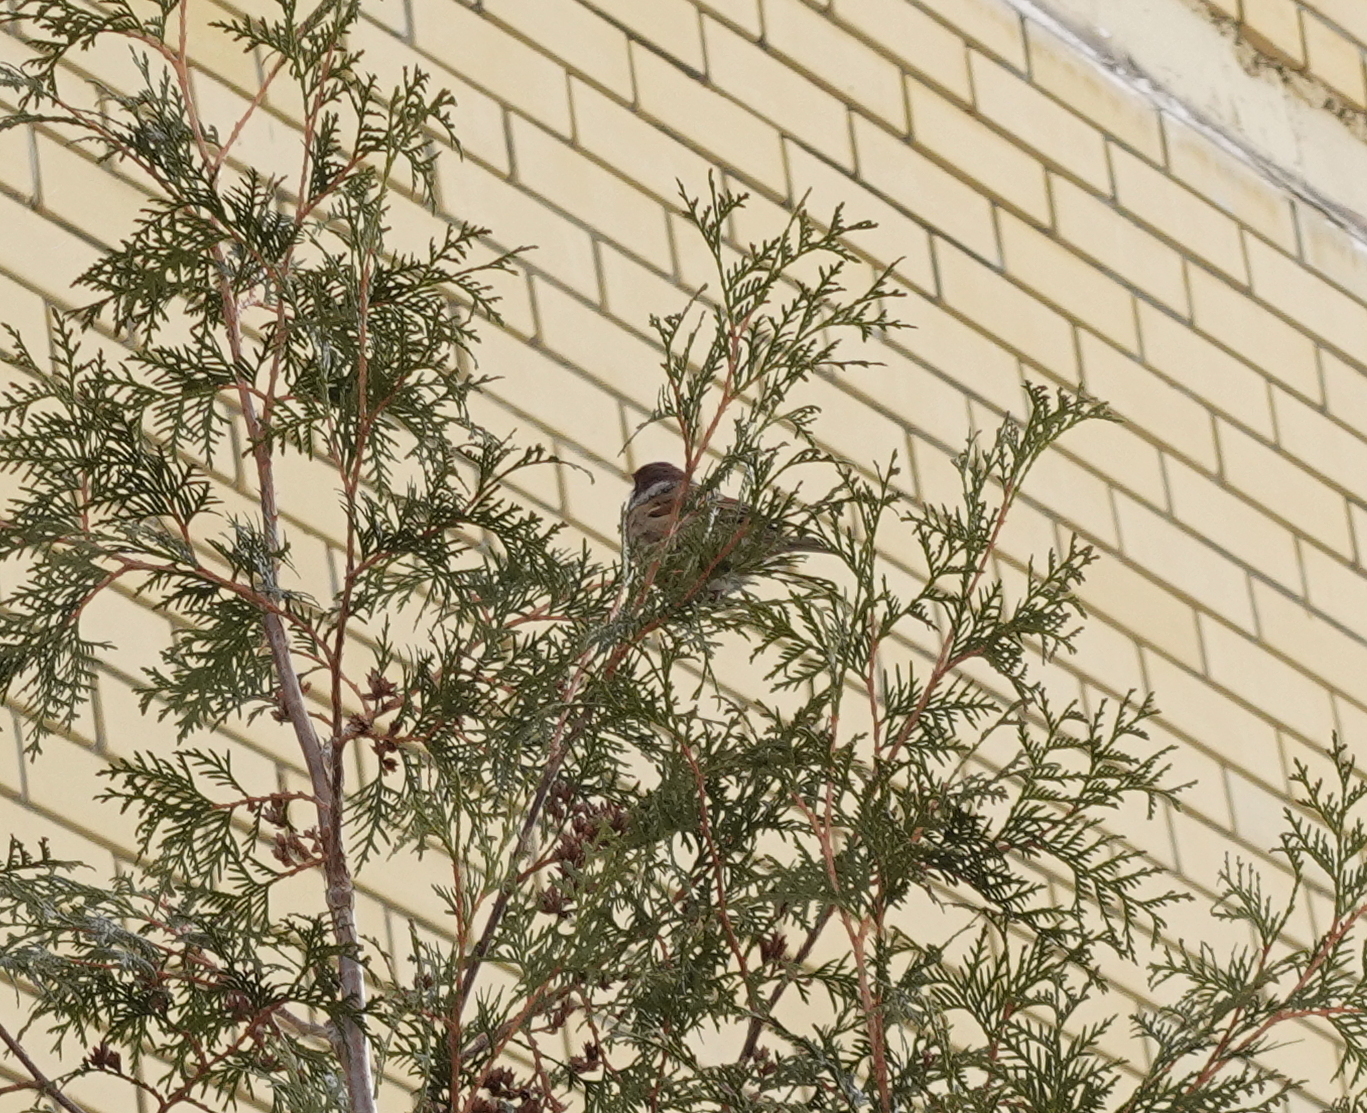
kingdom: Animalia
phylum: Chordata
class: Aves
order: Passeriformes
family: Passeridae
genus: Passer
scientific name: Passer montanus
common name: Eurasian tree sparrow
